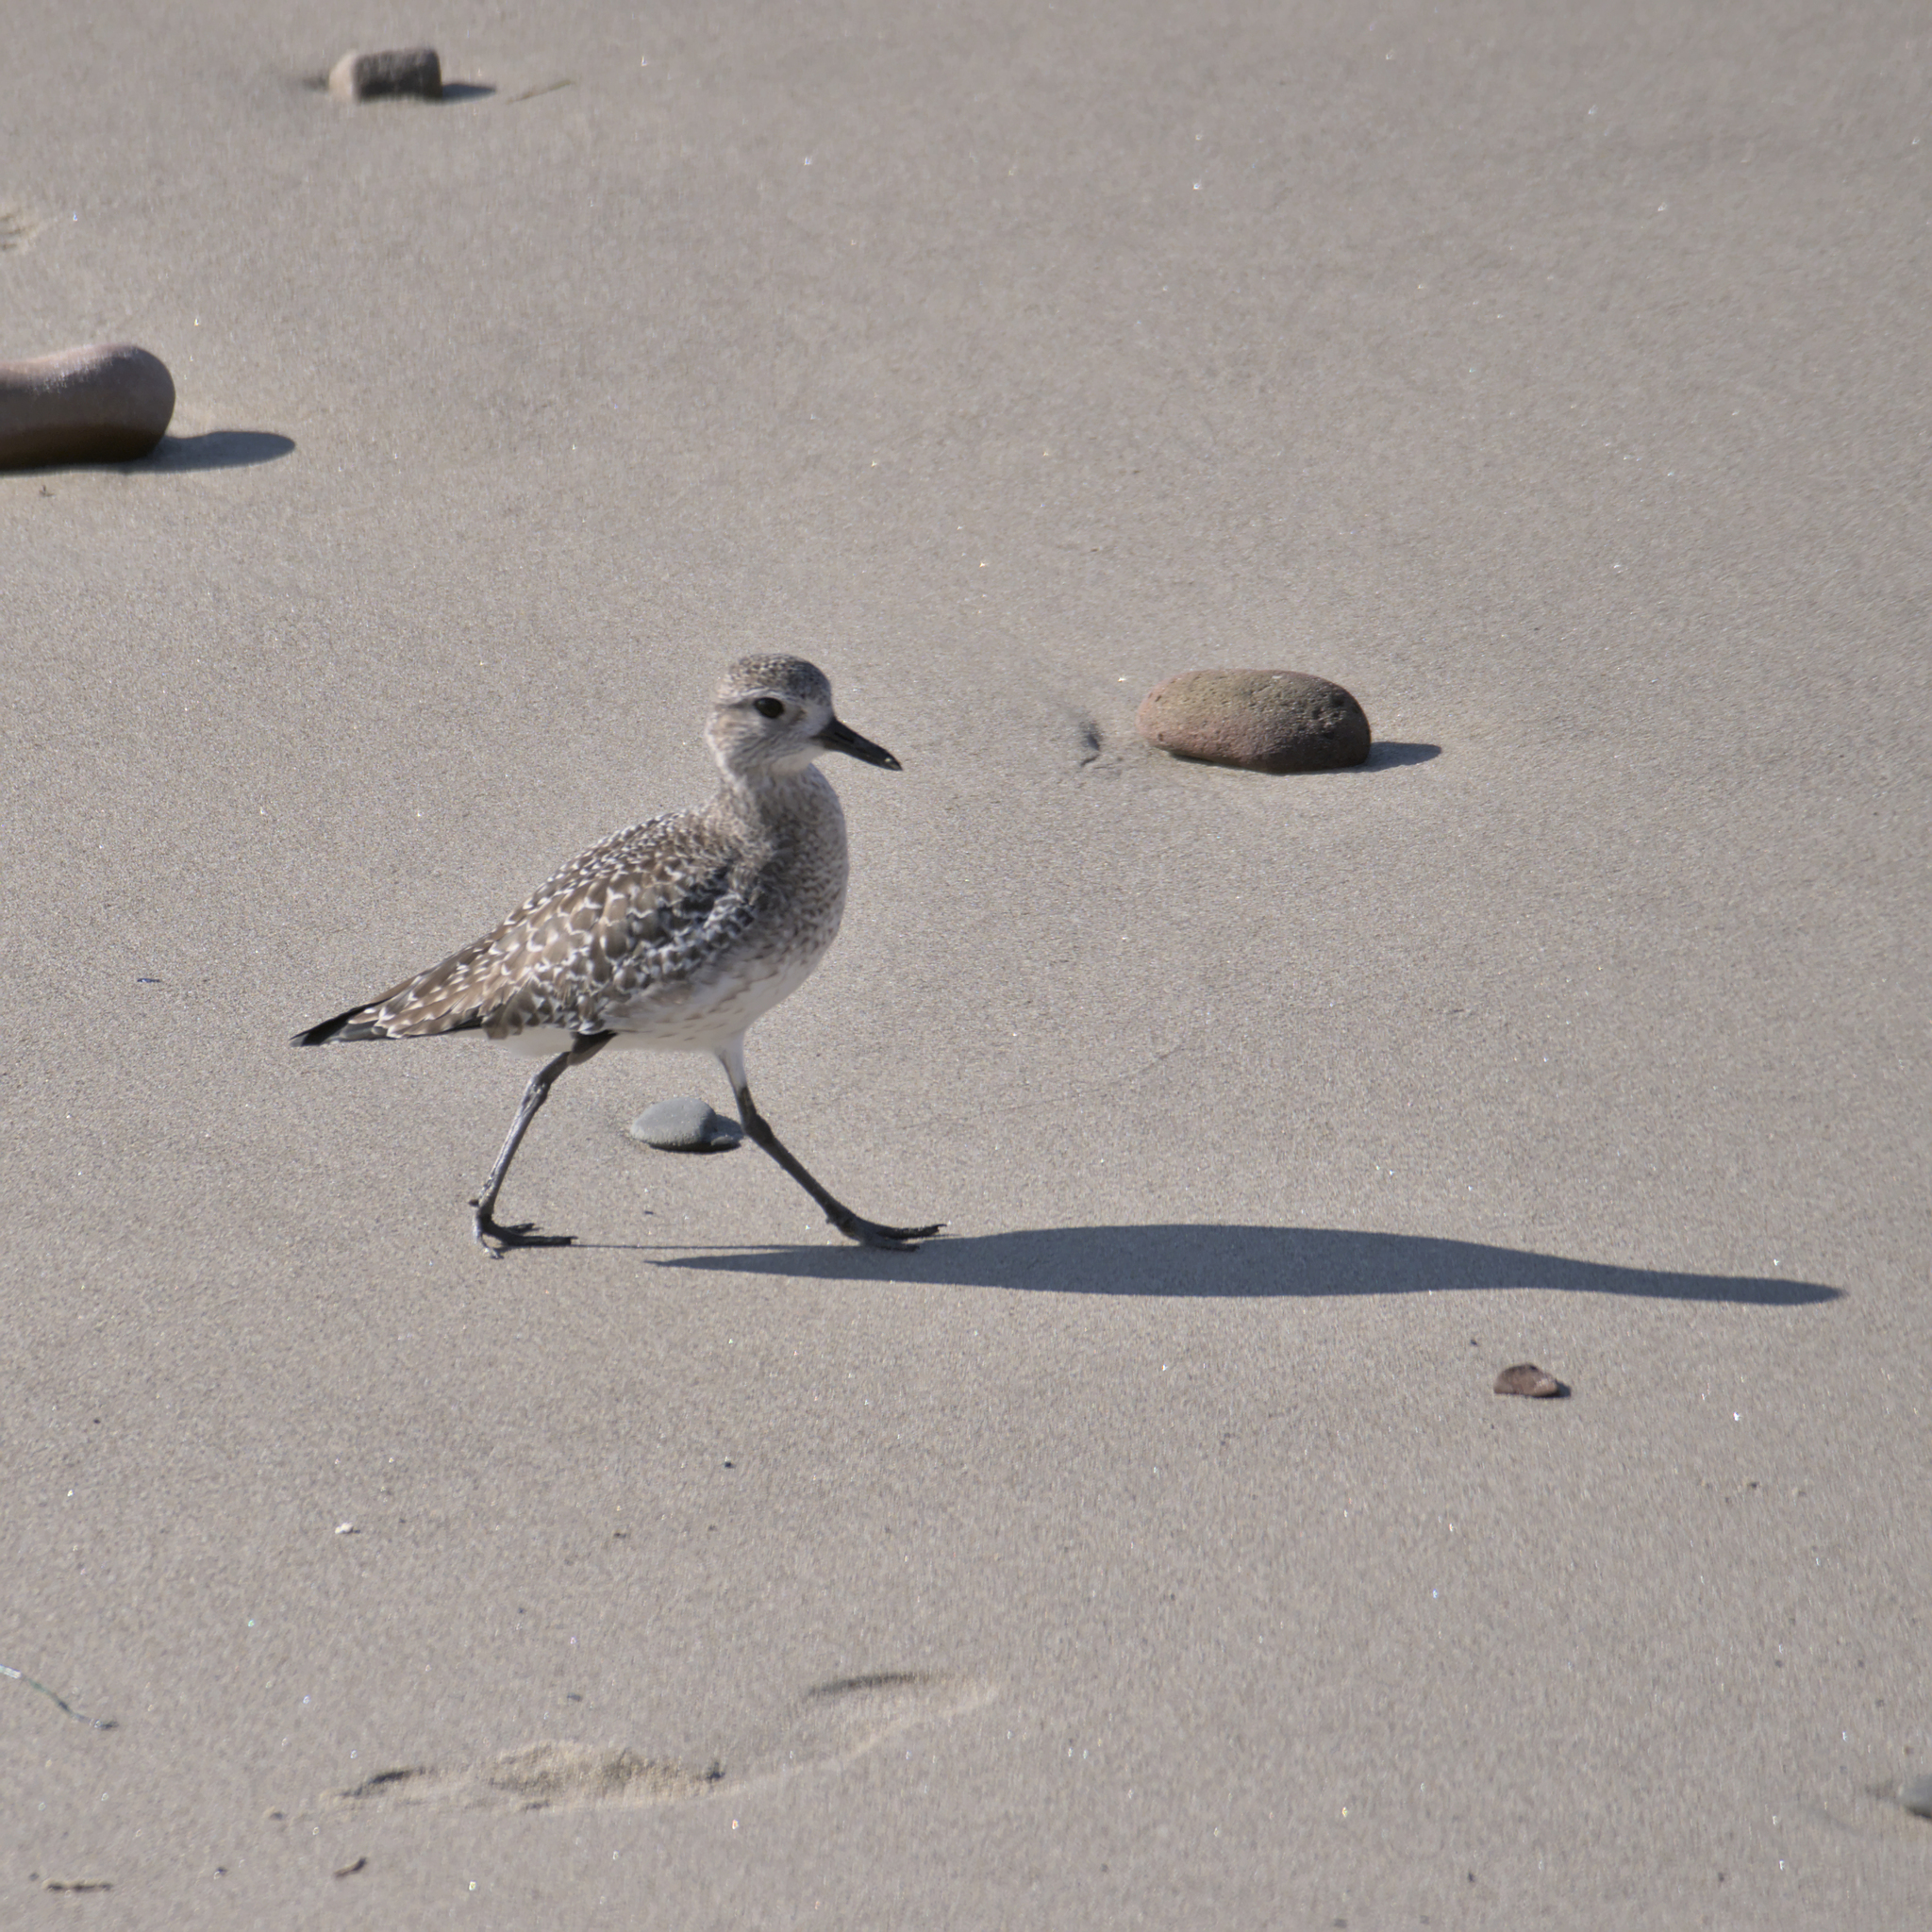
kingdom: Animalia
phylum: Chordata
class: Aves
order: Charadriiformes
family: Charadriidae
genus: Pluvialis
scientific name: Pluvialis squatarola
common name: Grey plover
